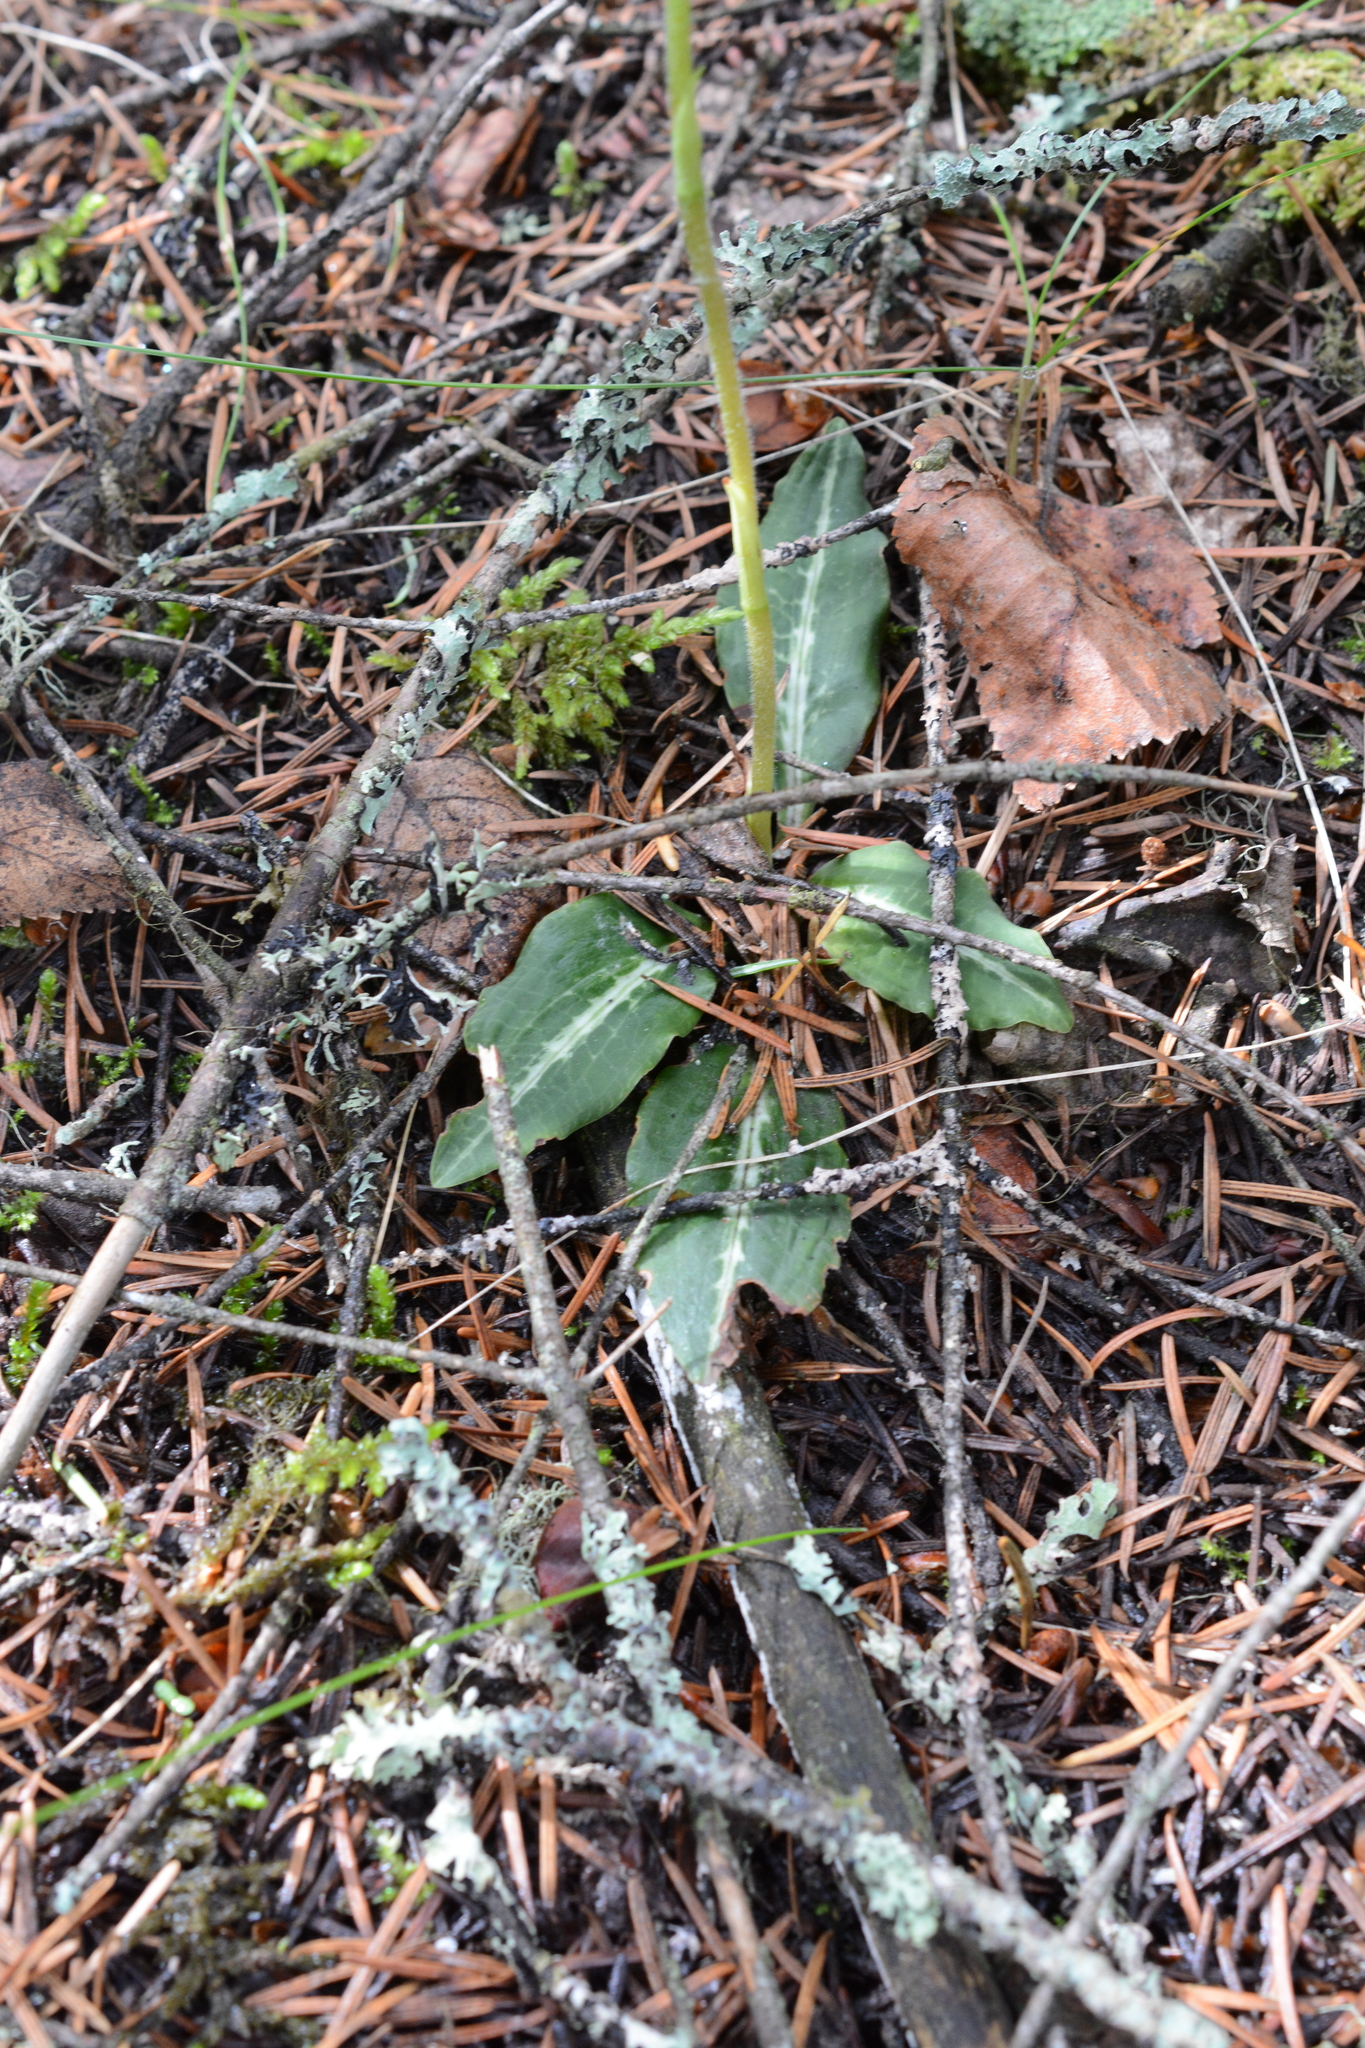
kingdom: Plantae
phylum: Tracheophyta
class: Liliopsida
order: Asparagales
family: Orchidaceae
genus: Goodyera
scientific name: Goodyera oblongifolia
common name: Giant rattlesnake-plantain
